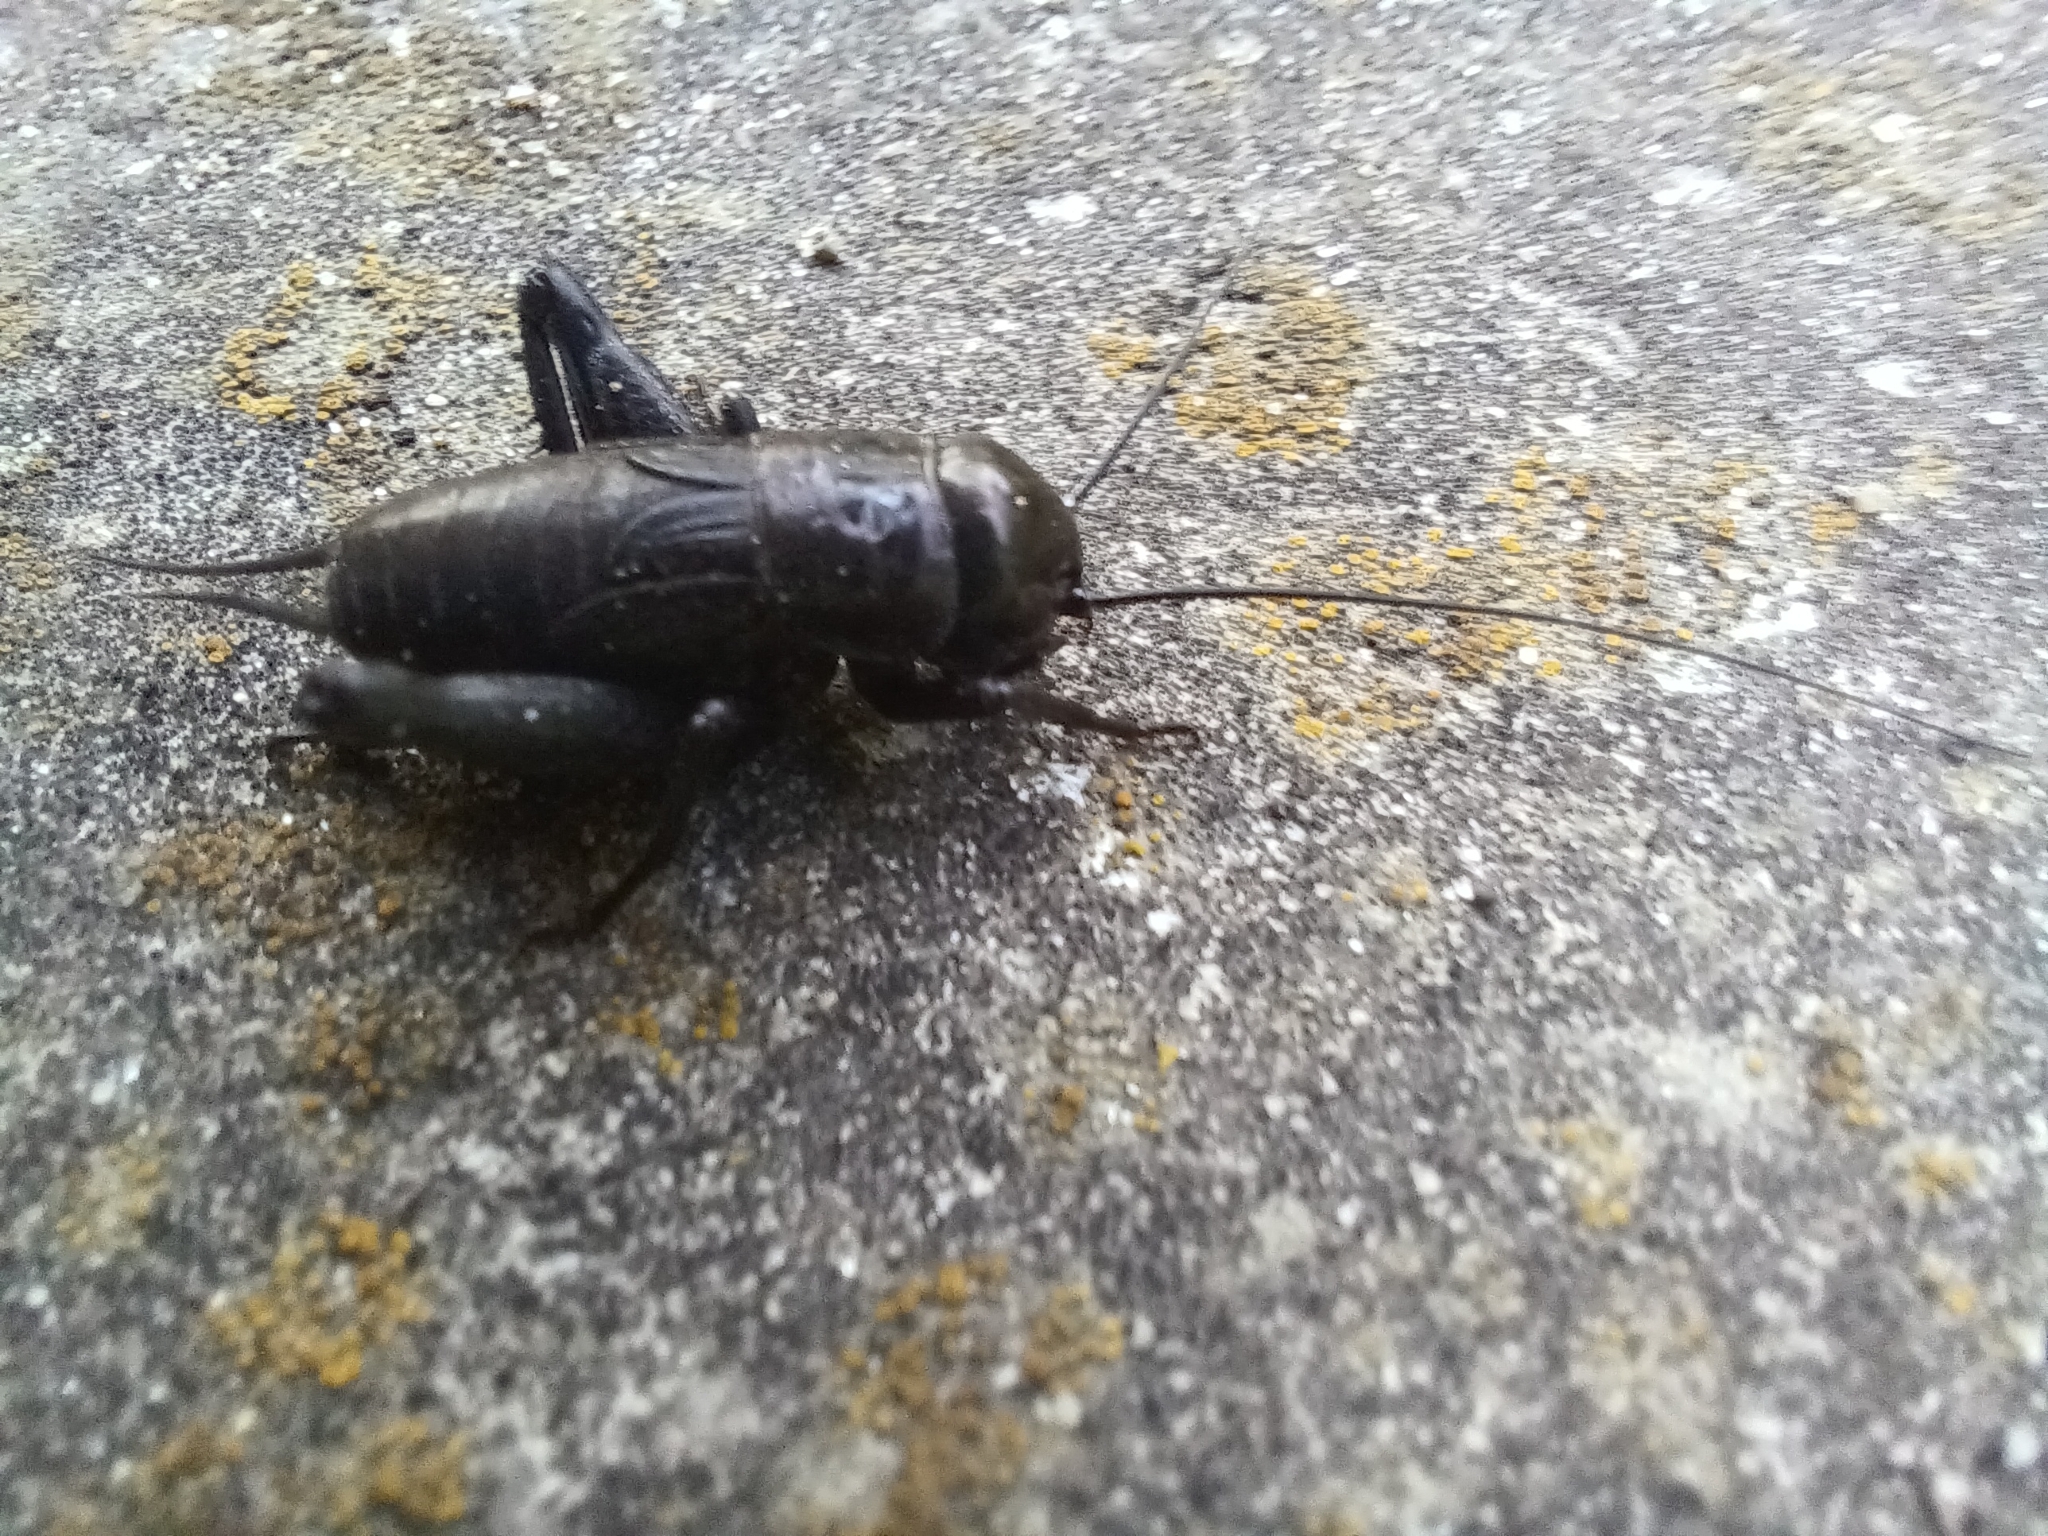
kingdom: Animalia
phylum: Arthropoda
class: Insecta
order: Orthoptera
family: Gryllidae
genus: Gryllus
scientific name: Gryllus veletis
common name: Spring field cricket
